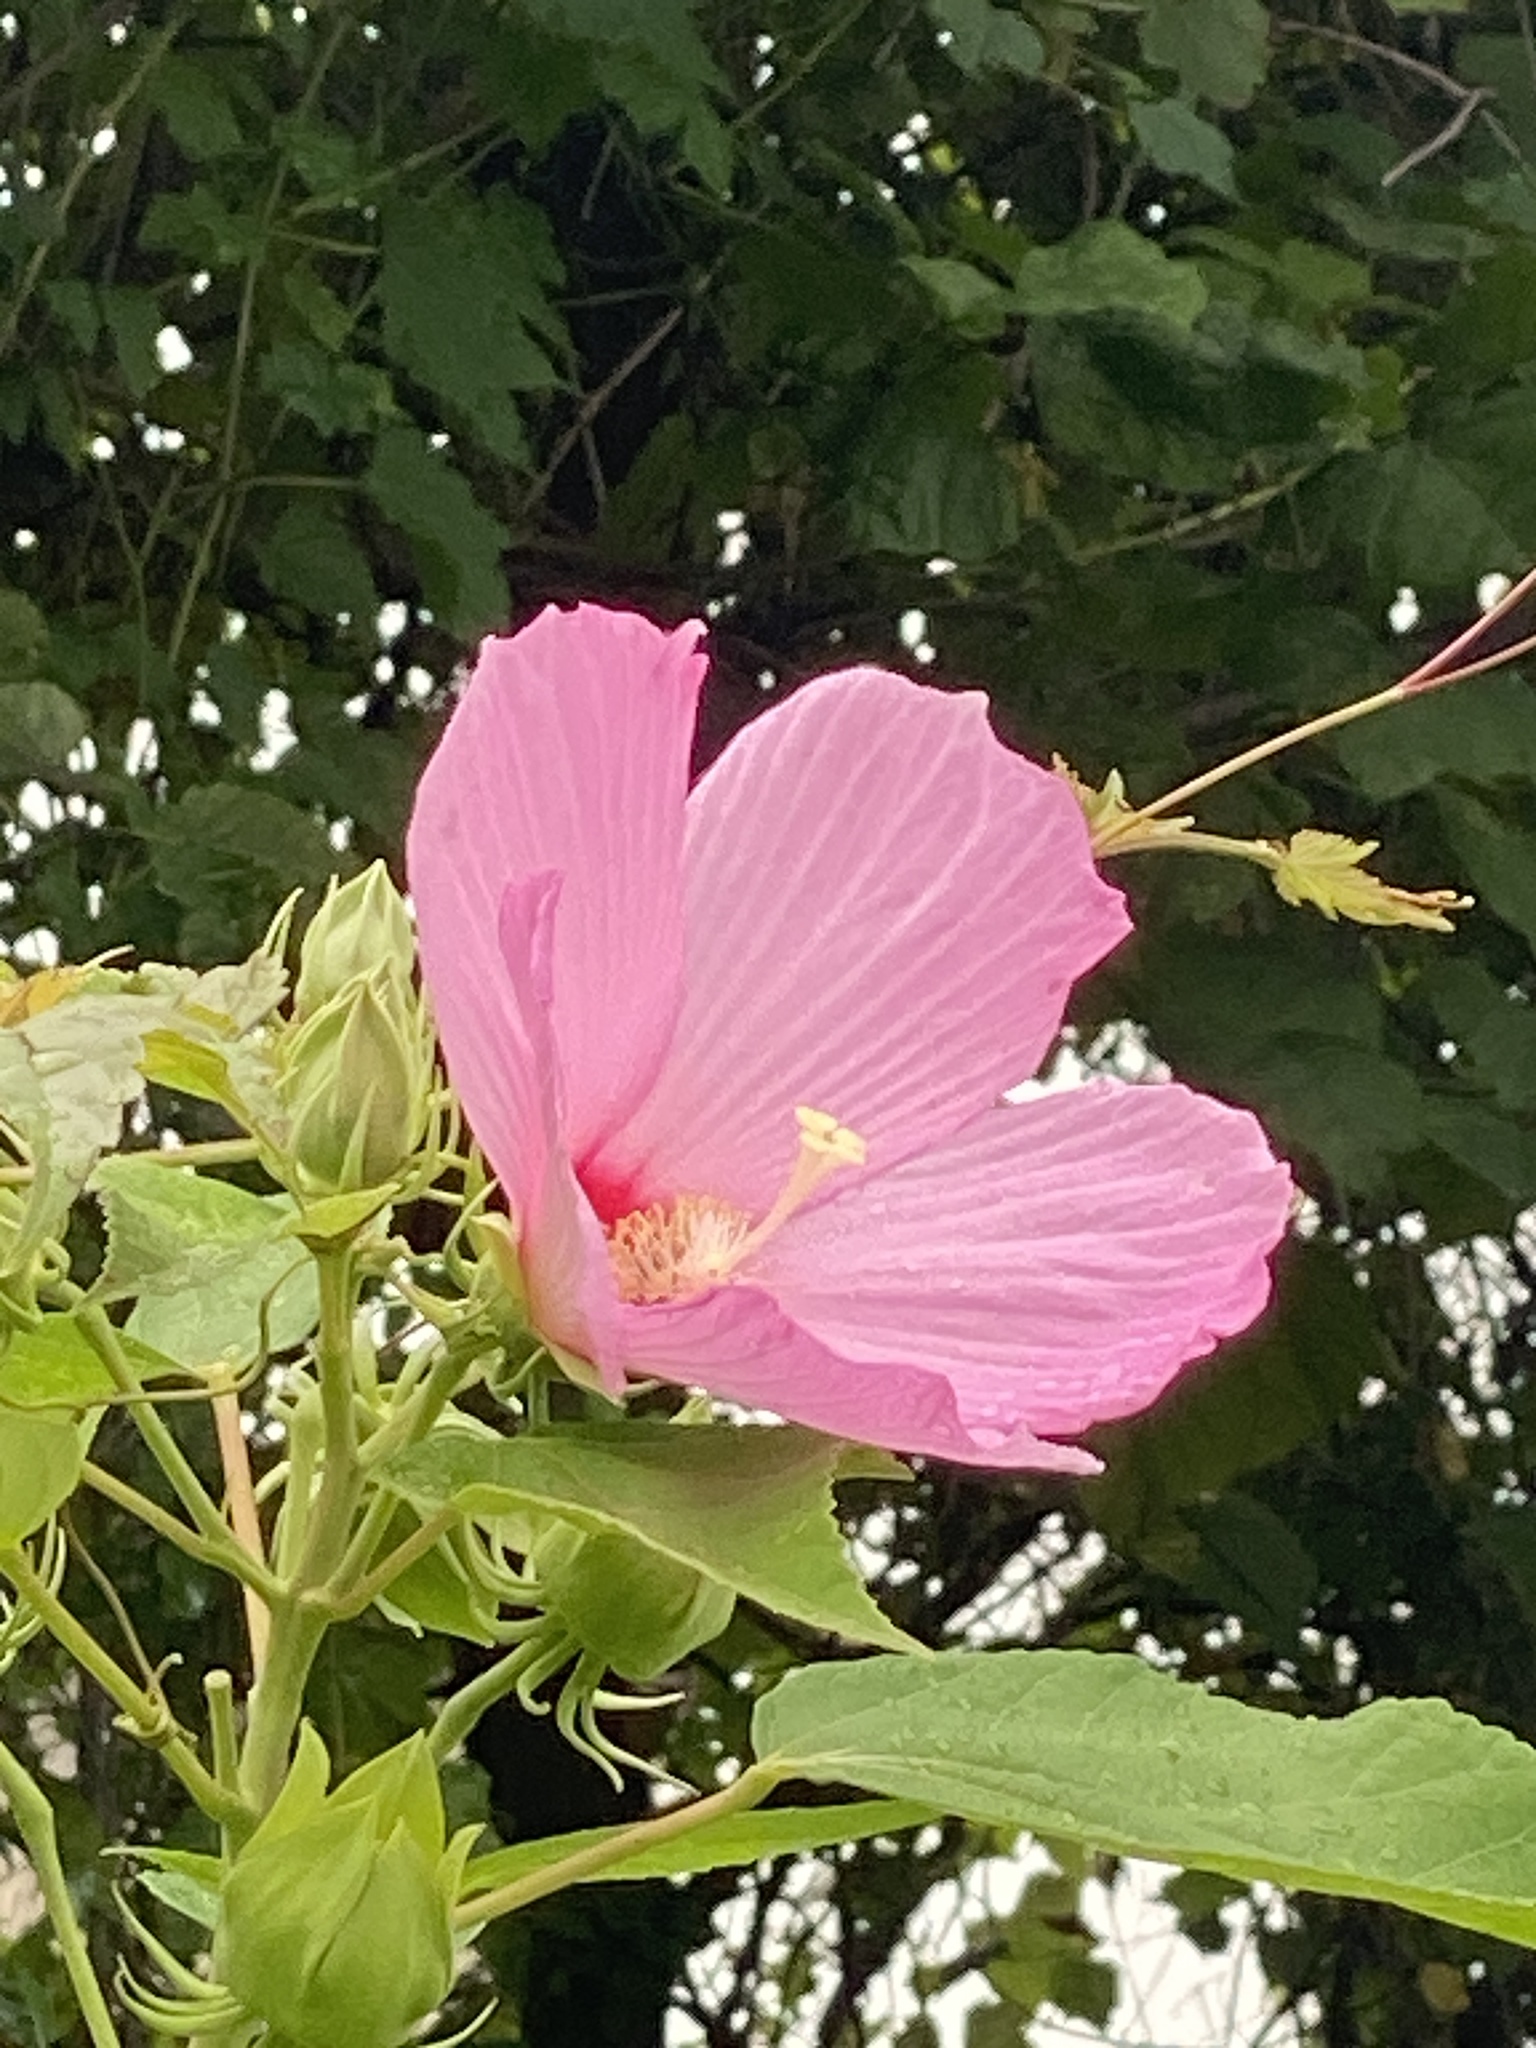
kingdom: Plantae
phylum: Tracheophyta
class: Magnoliopsida
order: Malvales
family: Malvaceae
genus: Hibiscus
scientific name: Hibiscus moscheutos
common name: Common rose-mallow
